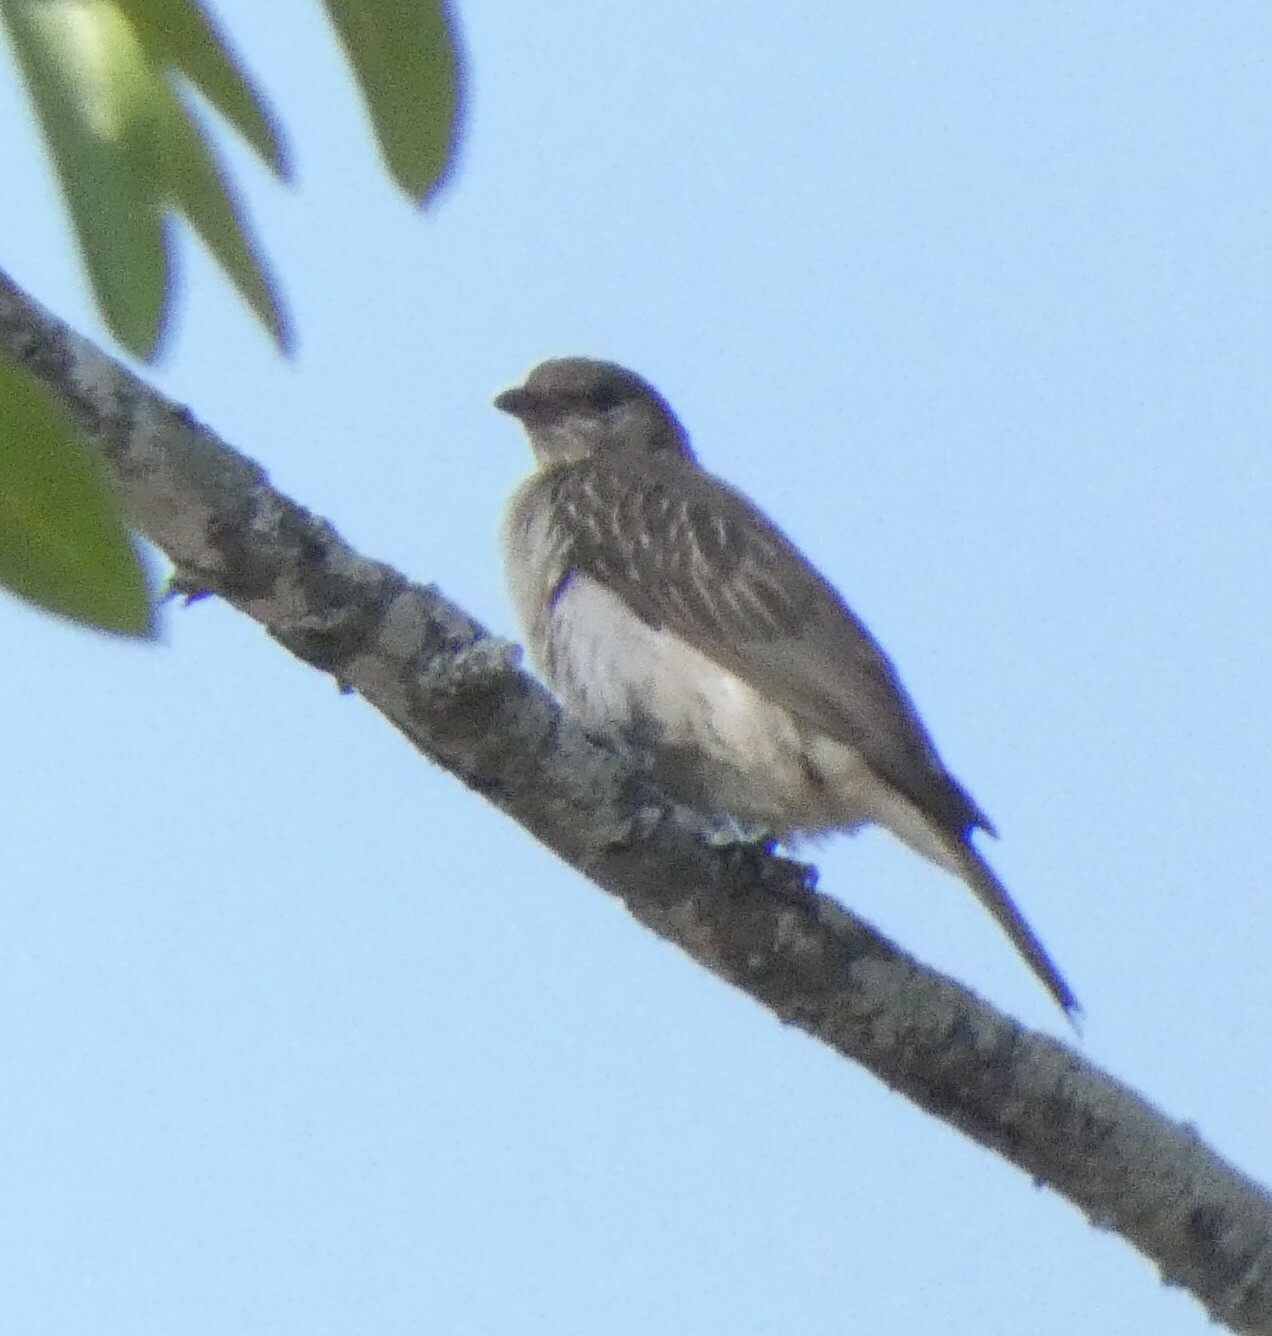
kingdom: Animalia
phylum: Chordata
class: Aves
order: Piciformes
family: Indicatoridae
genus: Indicator
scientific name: Indicator indicator
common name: Greater honeyguide
